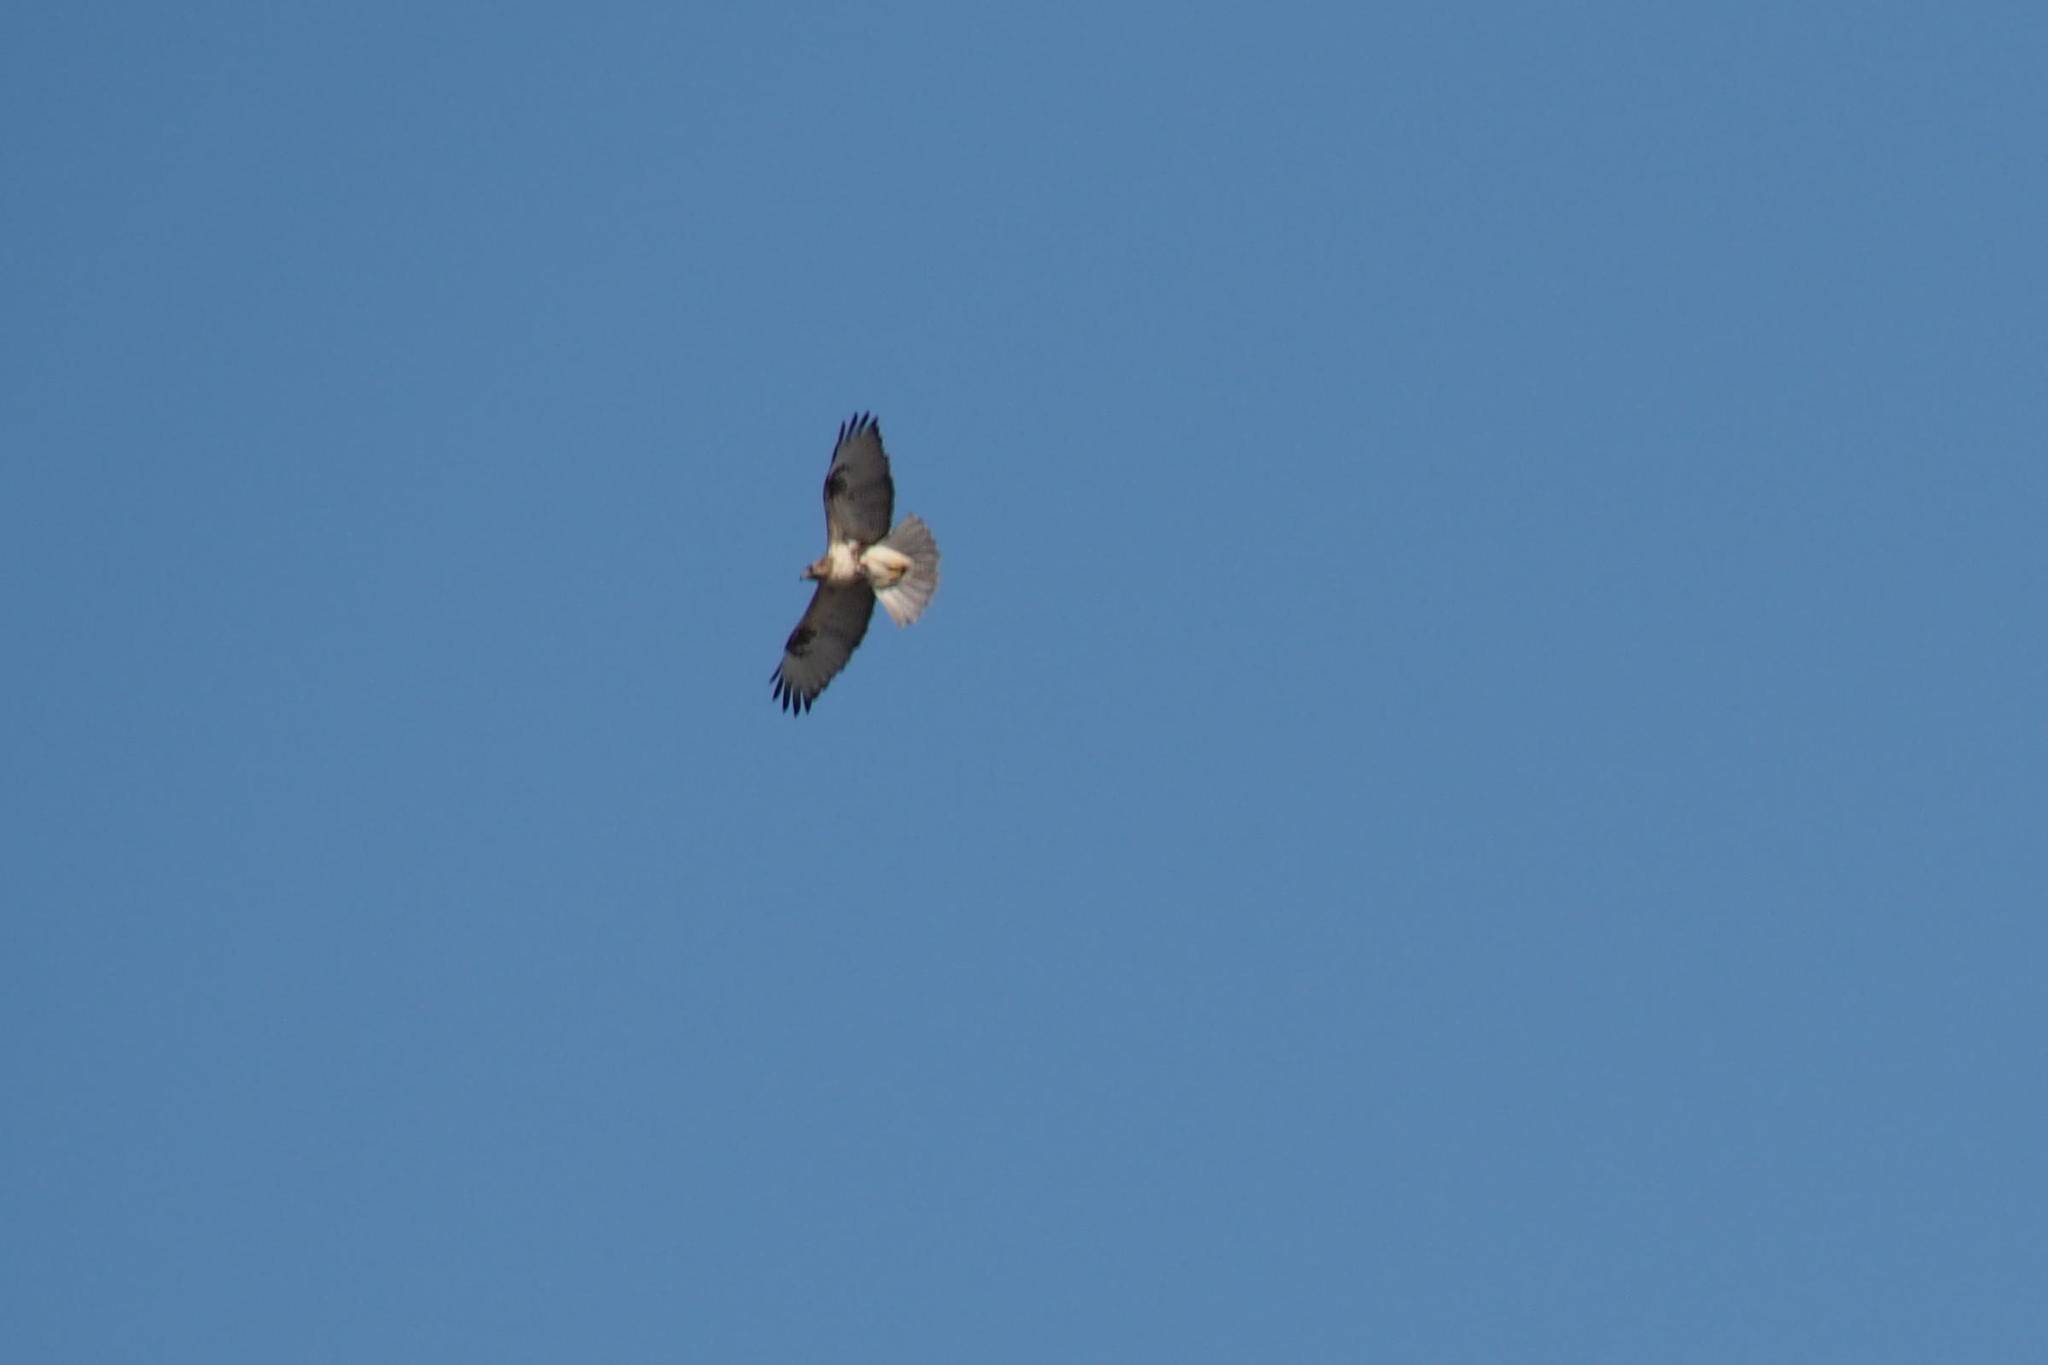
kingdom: Animalia
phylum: Chordata
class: Aves
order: Accipitriformes
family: Accipitridae
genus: Buteo
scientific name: Buteo japonicus
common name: Eastern buzzard
